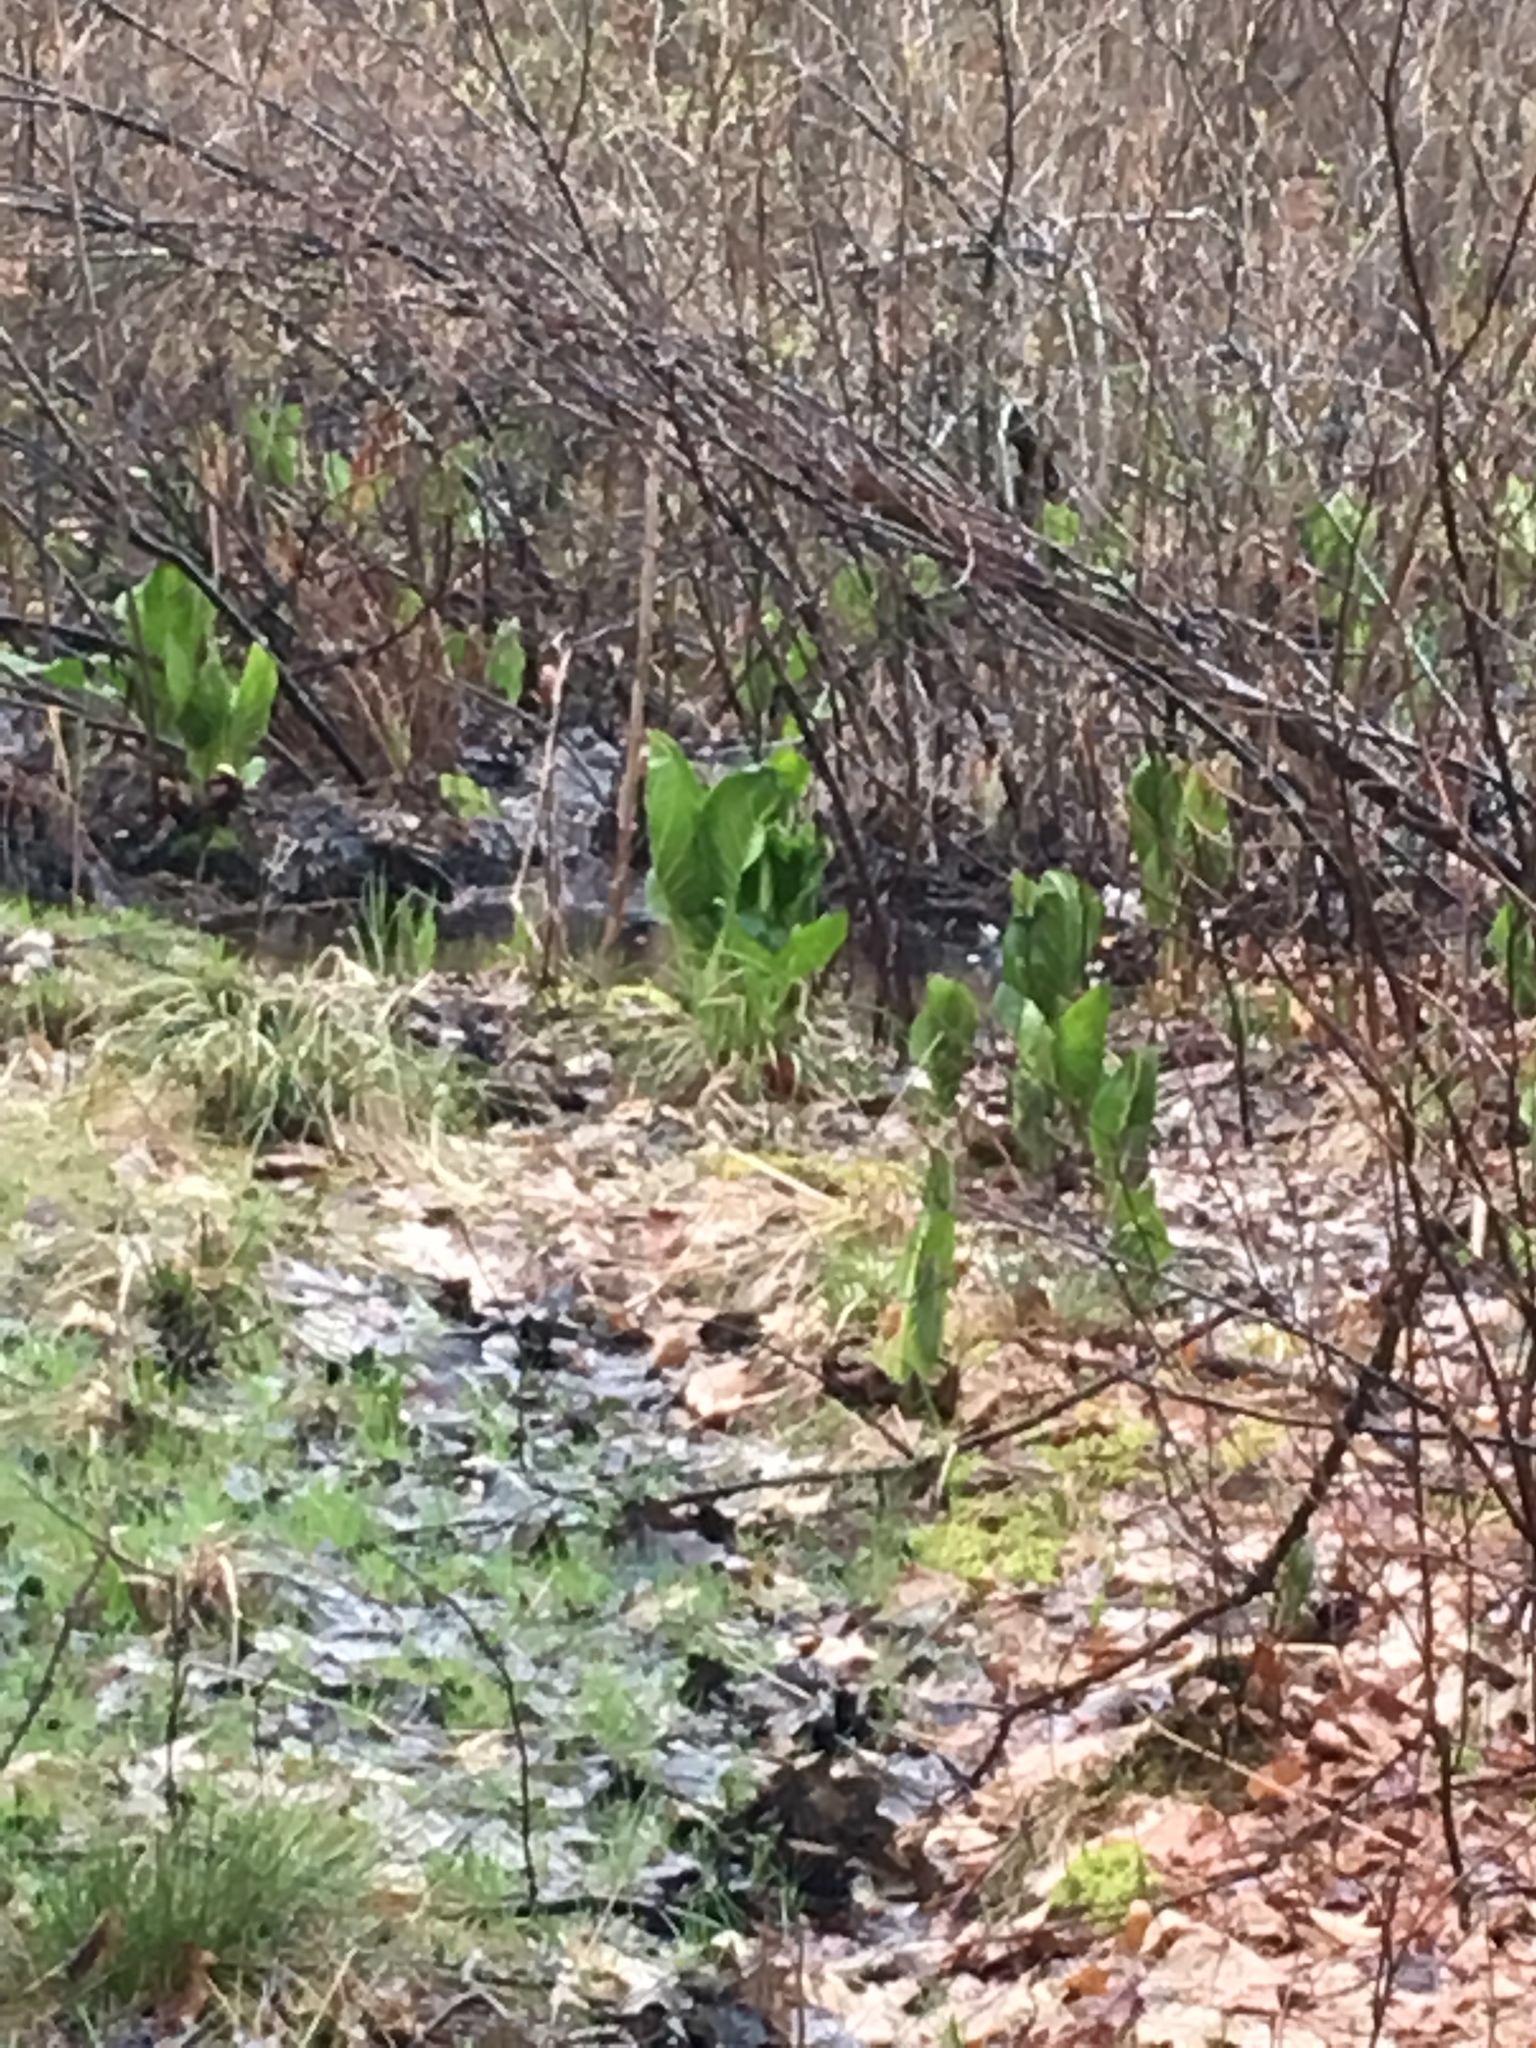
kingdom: Plantae
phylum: Tracheophyta
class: Liliopsida
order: Alismatales
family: Araceae
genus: Symplocarpus
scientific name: Symplocarpus foetidus
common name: Eastern skunk cabbage
